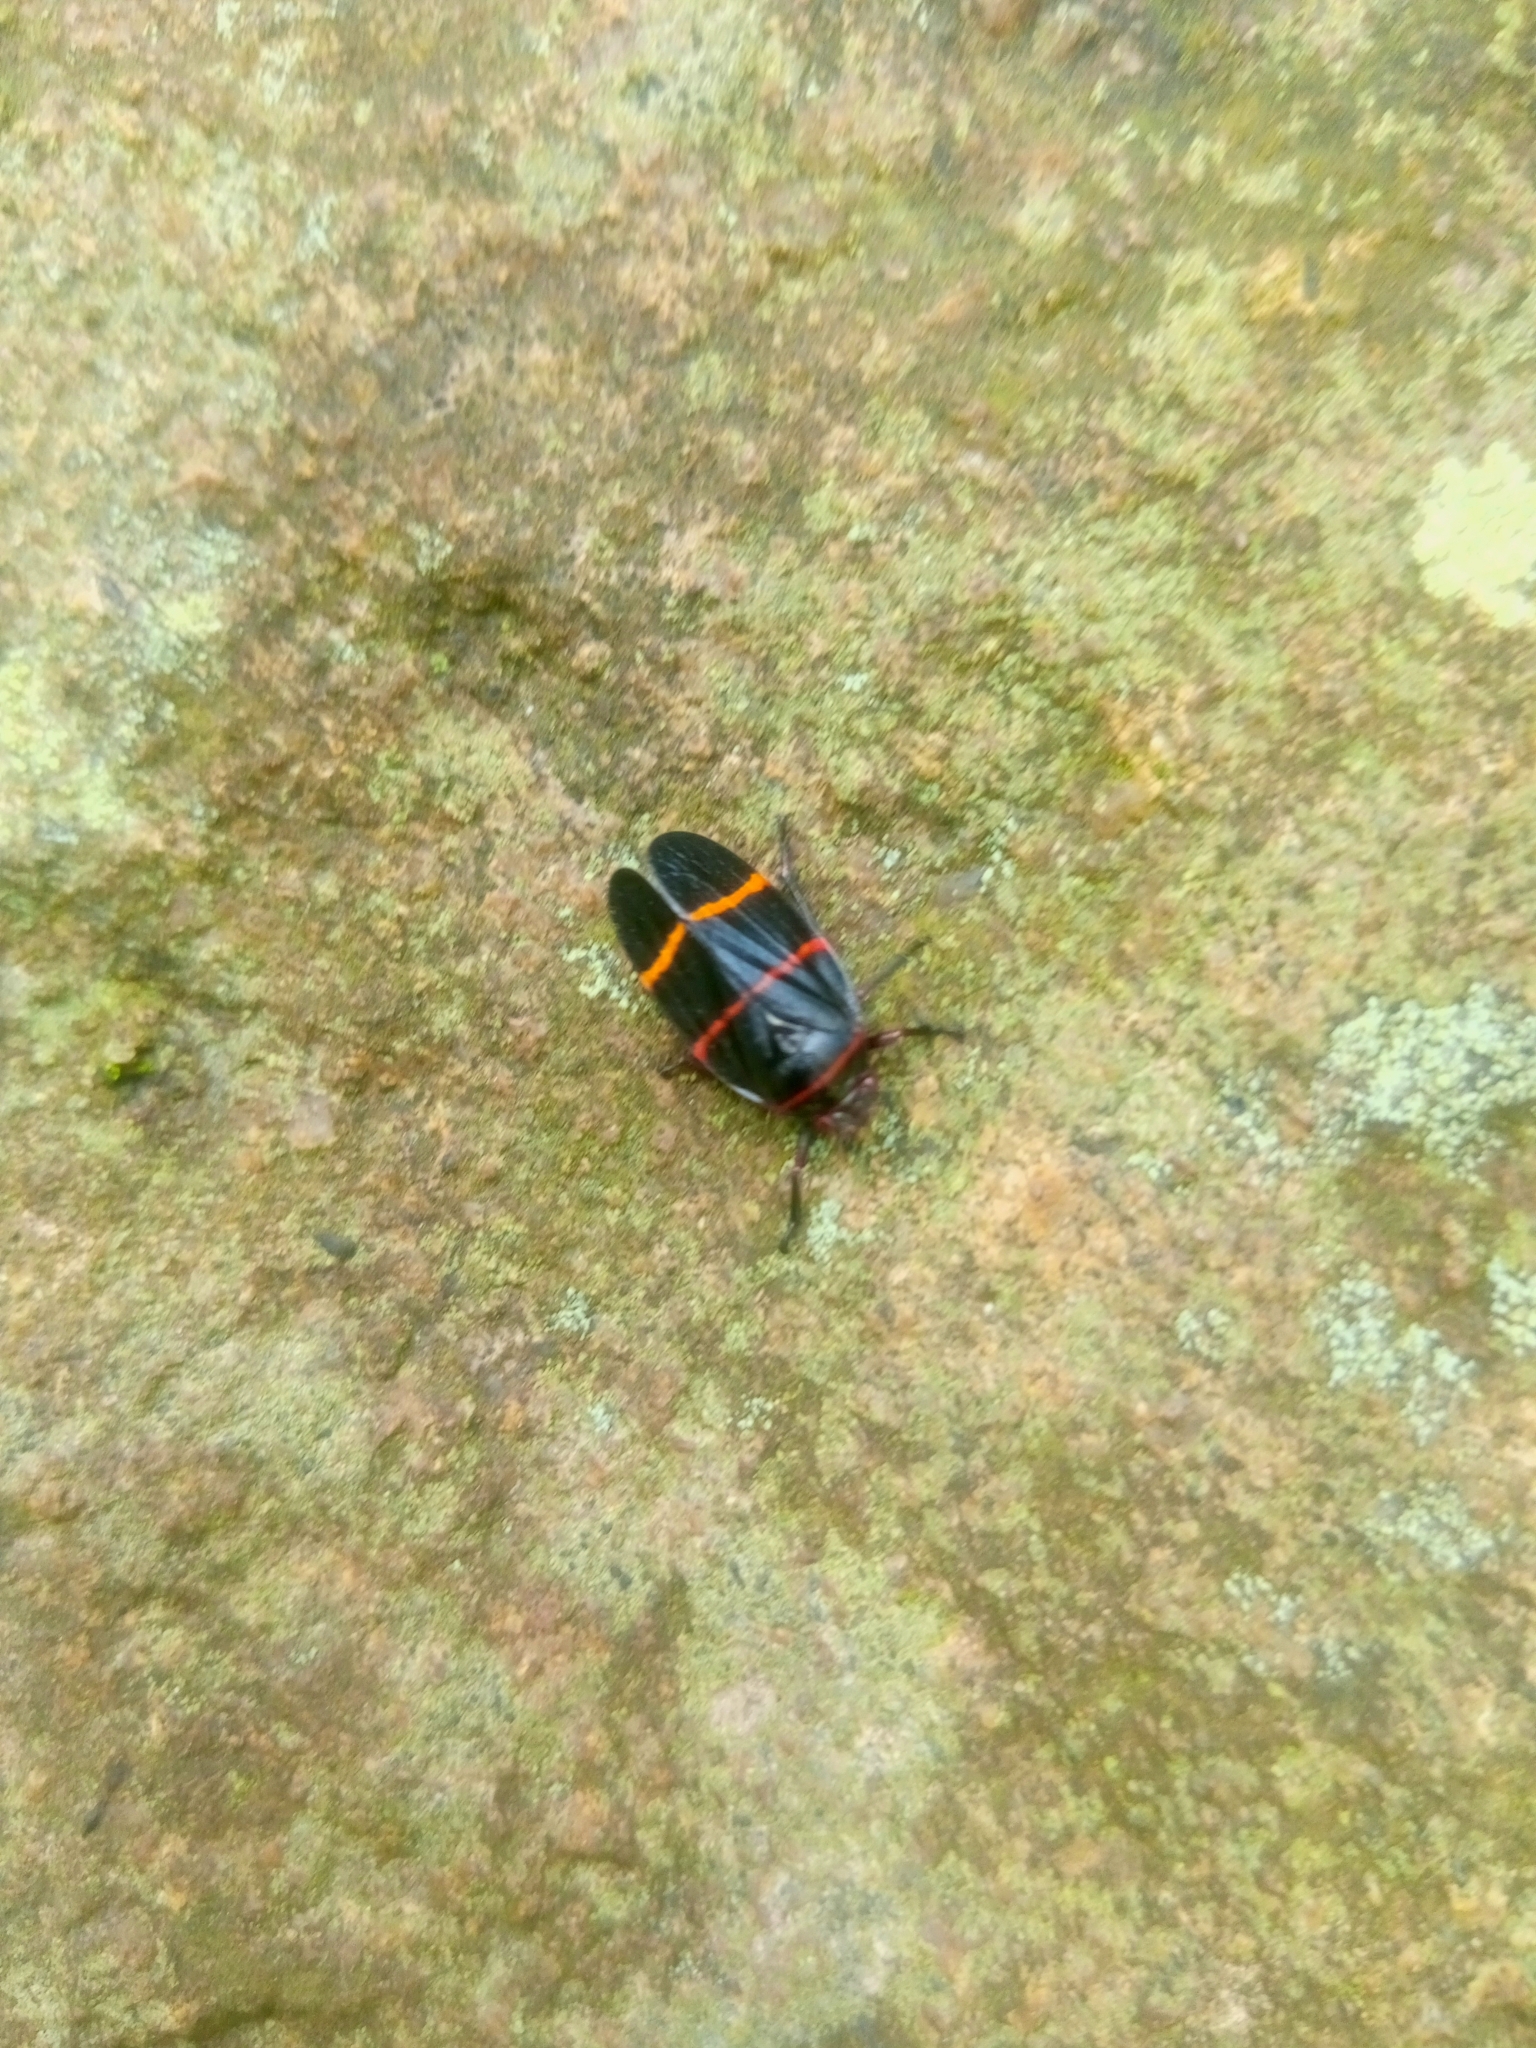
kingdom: Animalia
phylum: Arthropoda
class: Insecta
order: Hemiptera
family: Cercopidae
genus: Prosapia
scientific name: Prosapia
